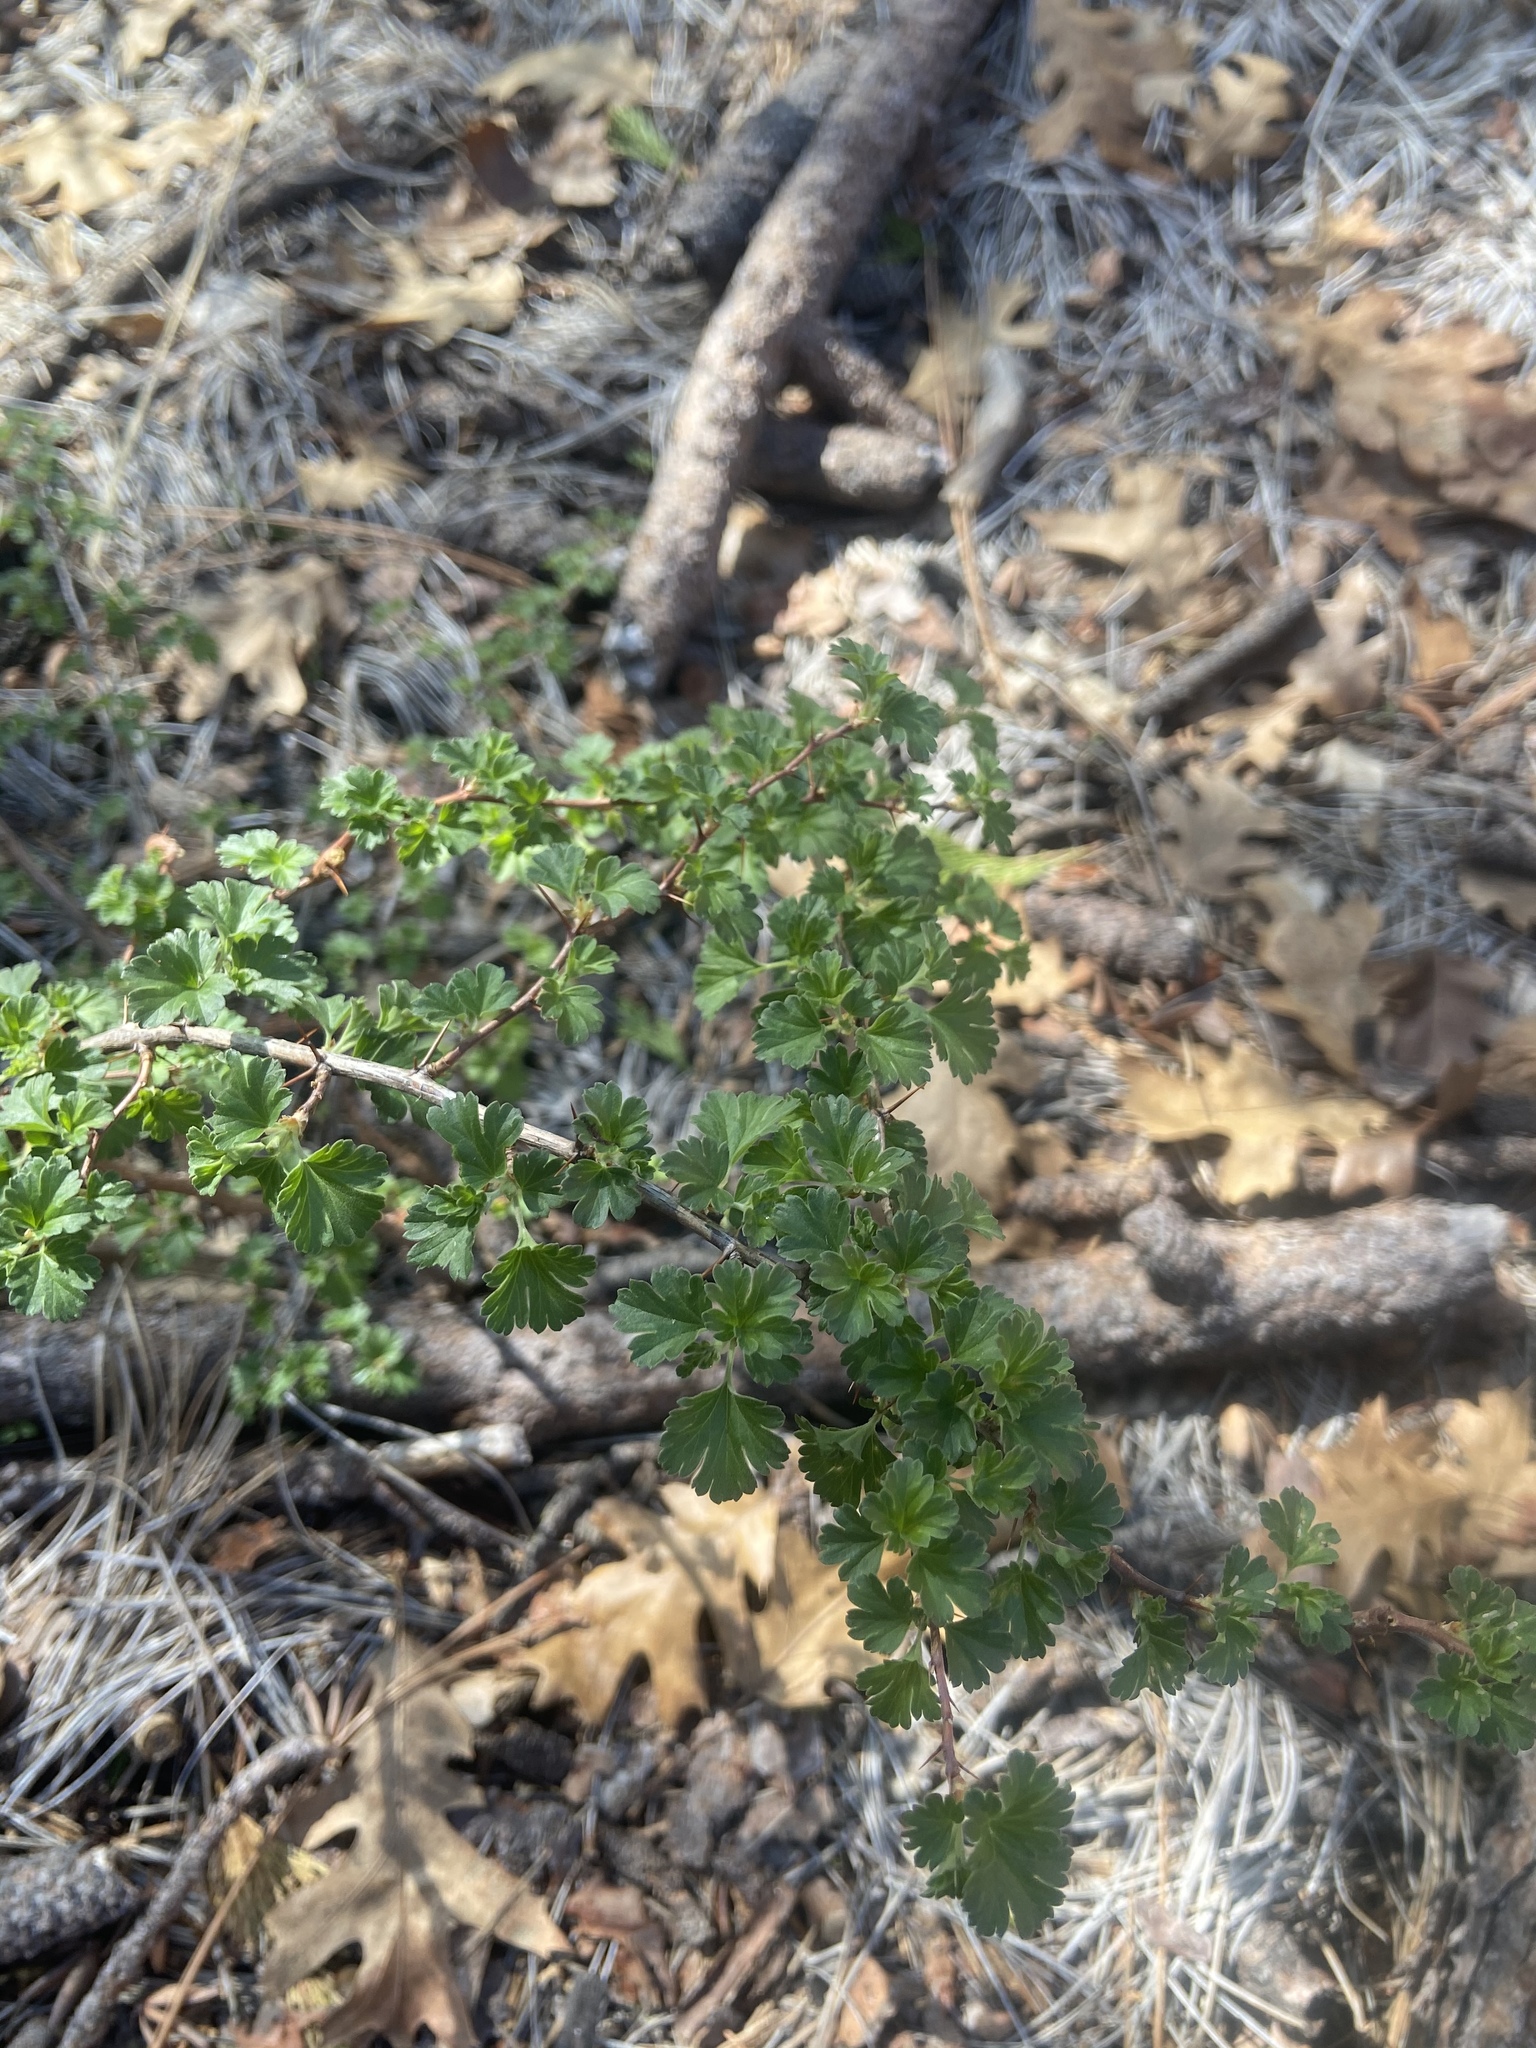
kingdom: Plantae
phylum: Tracheophyta
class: Magnoliopsida
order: Saxifragales
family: Grossulariaceae
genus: Ribes
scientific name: Ribes roezlii
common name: Sierra gooseberry
